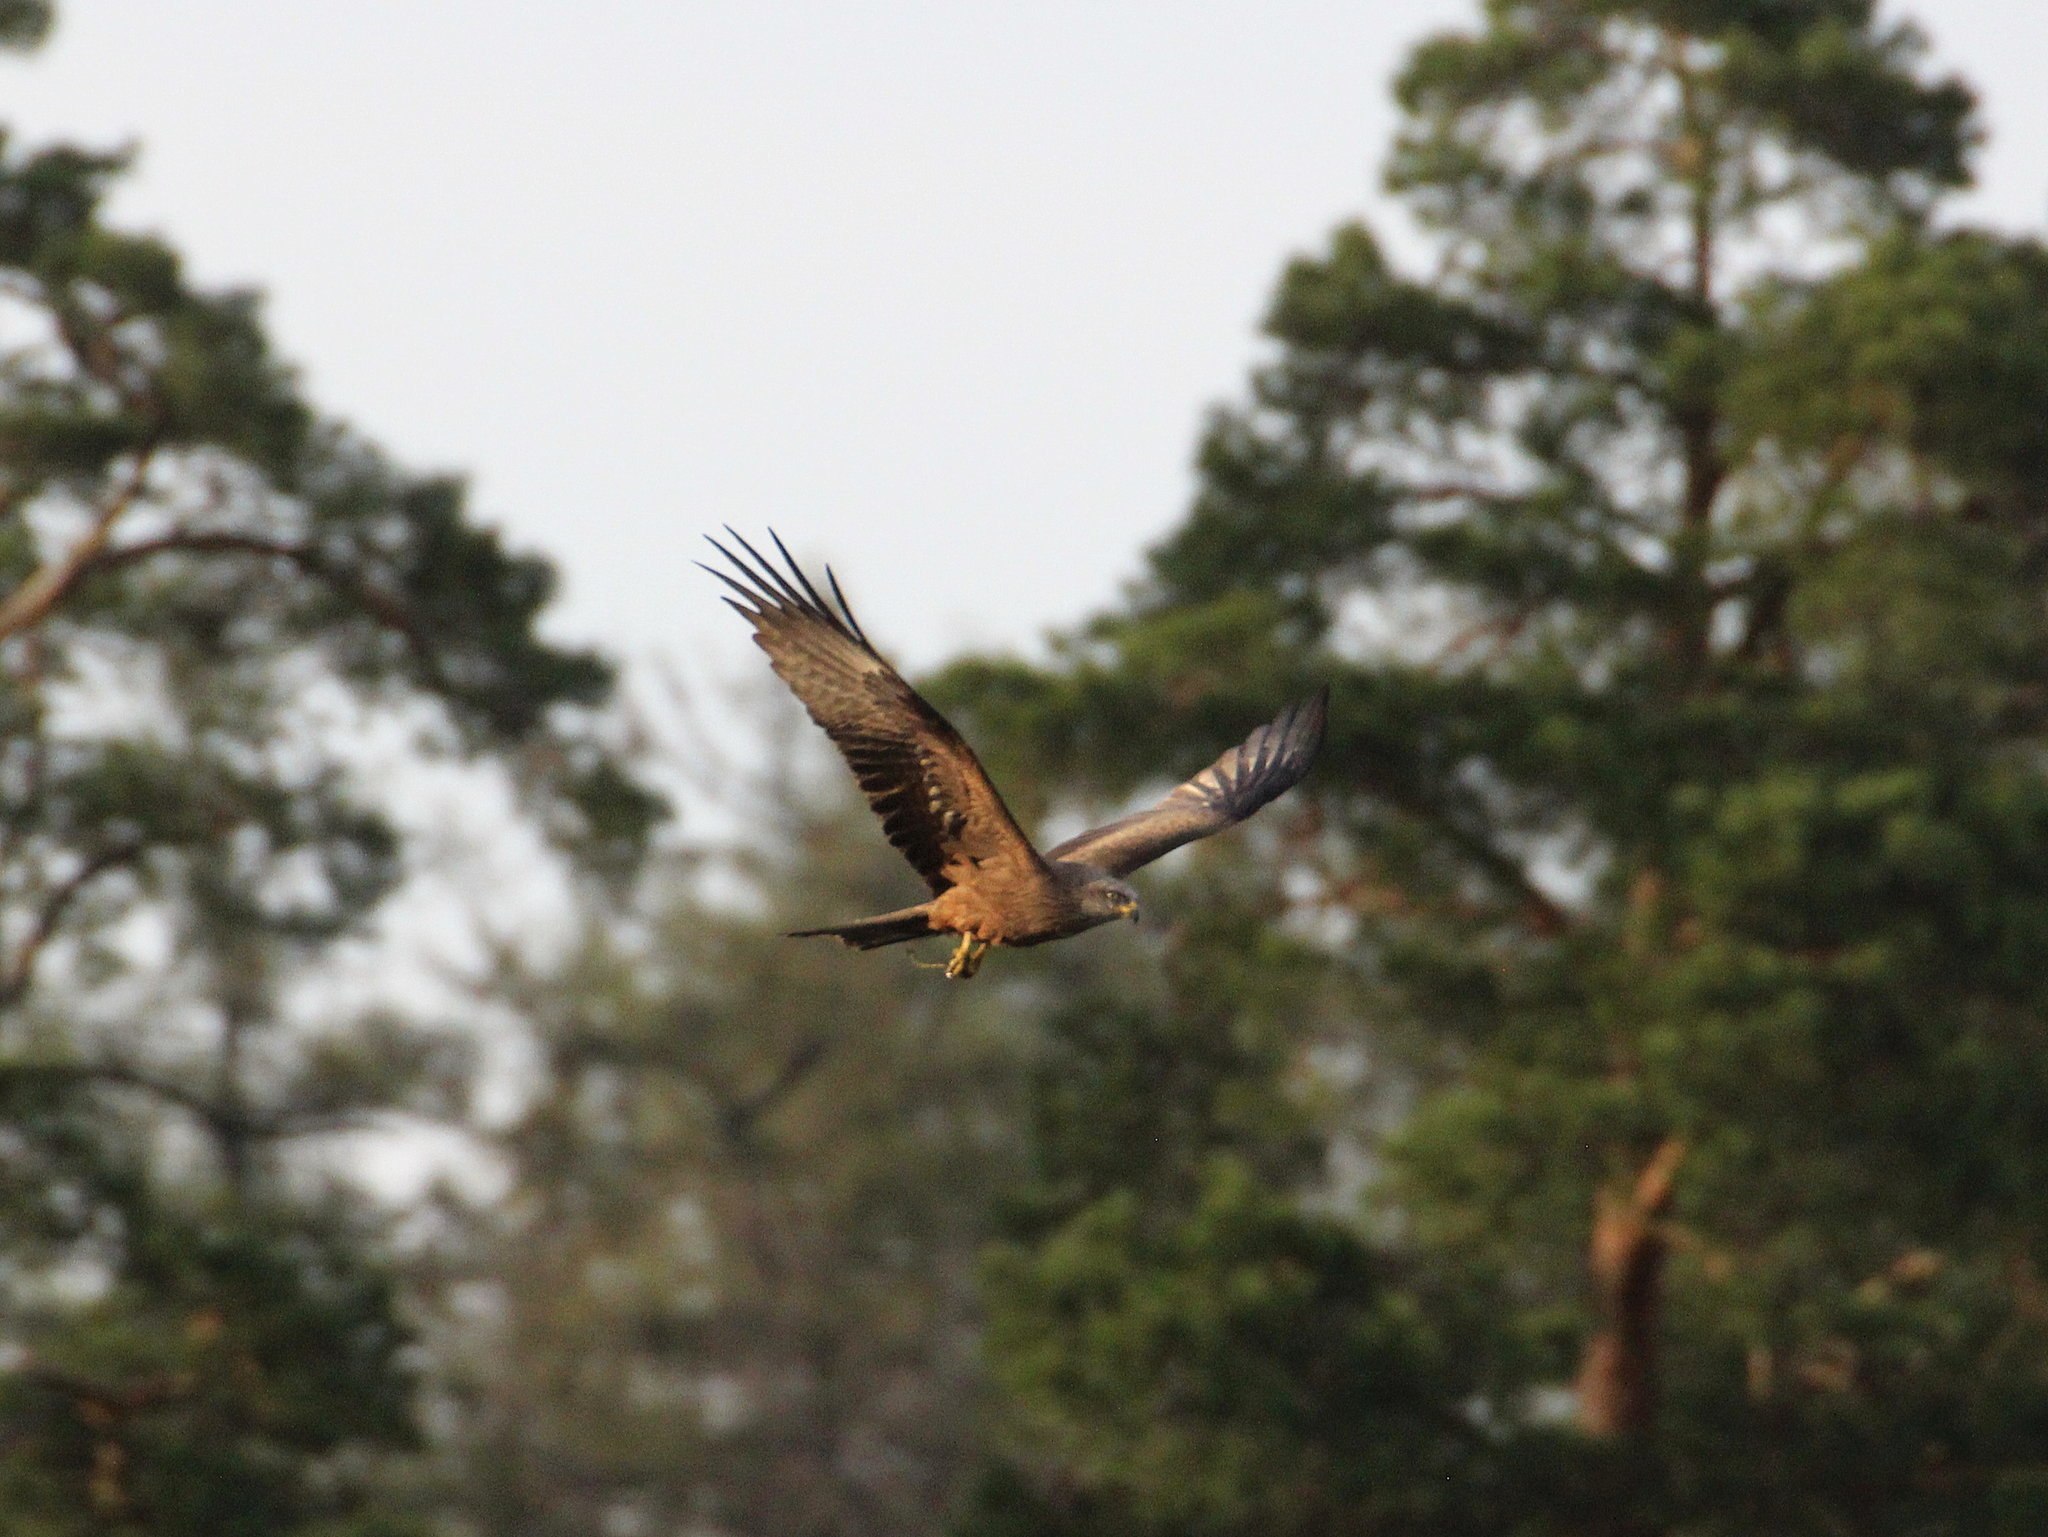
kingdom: Animalia
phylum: Chordata
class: Aves
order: Accipitriformes
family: Accipitridae
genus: Milvus
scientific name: Milvus migrans
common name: Black kite
